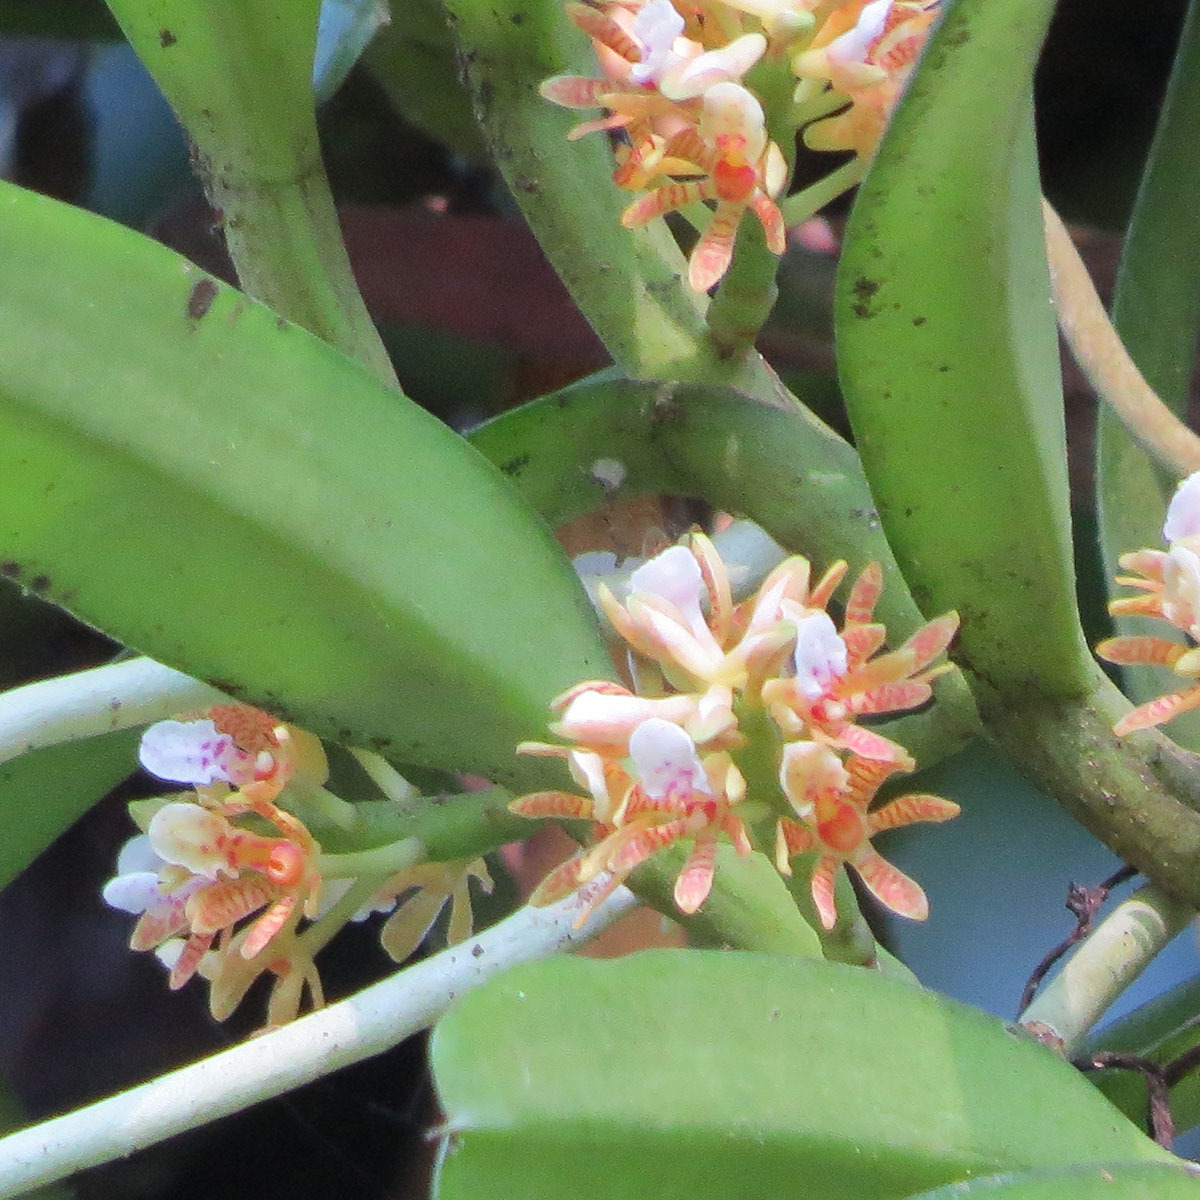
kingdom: Plantae
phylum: Tracheophyta
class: Liliopsida
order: Asparagales
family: Orchidaceae
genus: Acampe
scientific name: Acampe carinata
